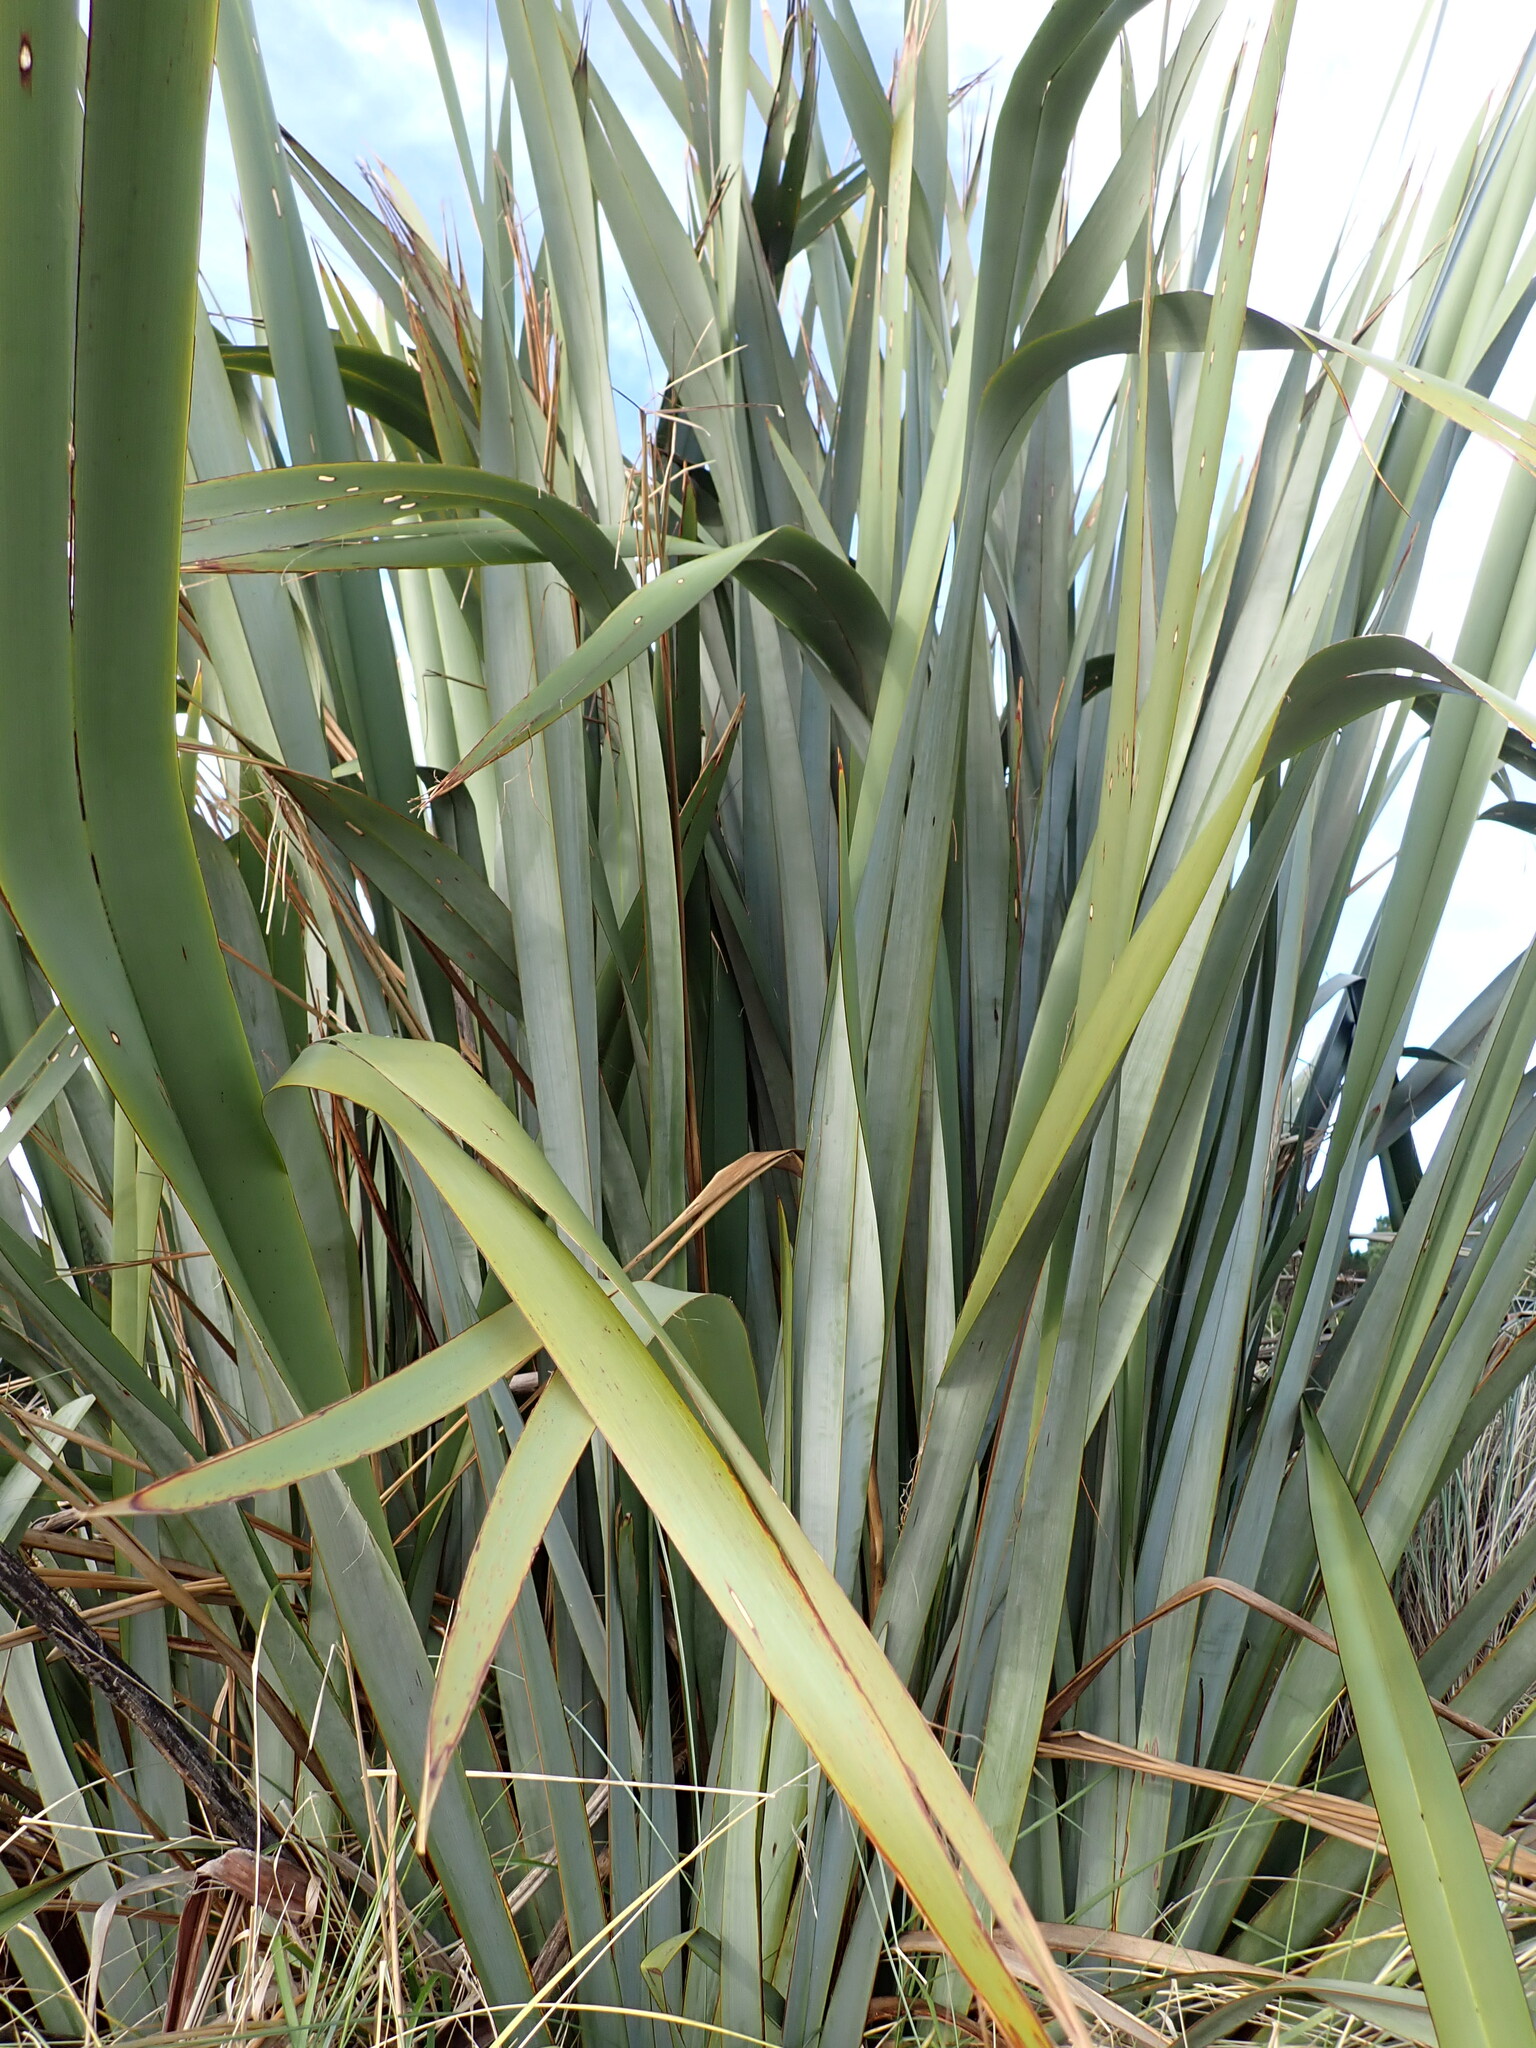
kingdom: Plantae
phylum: Tracheophyta
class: Liliopsida
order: Asparagales
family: Asphodelaceae
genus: Phormium
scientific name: Phormium tenax
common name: New zealand flax
